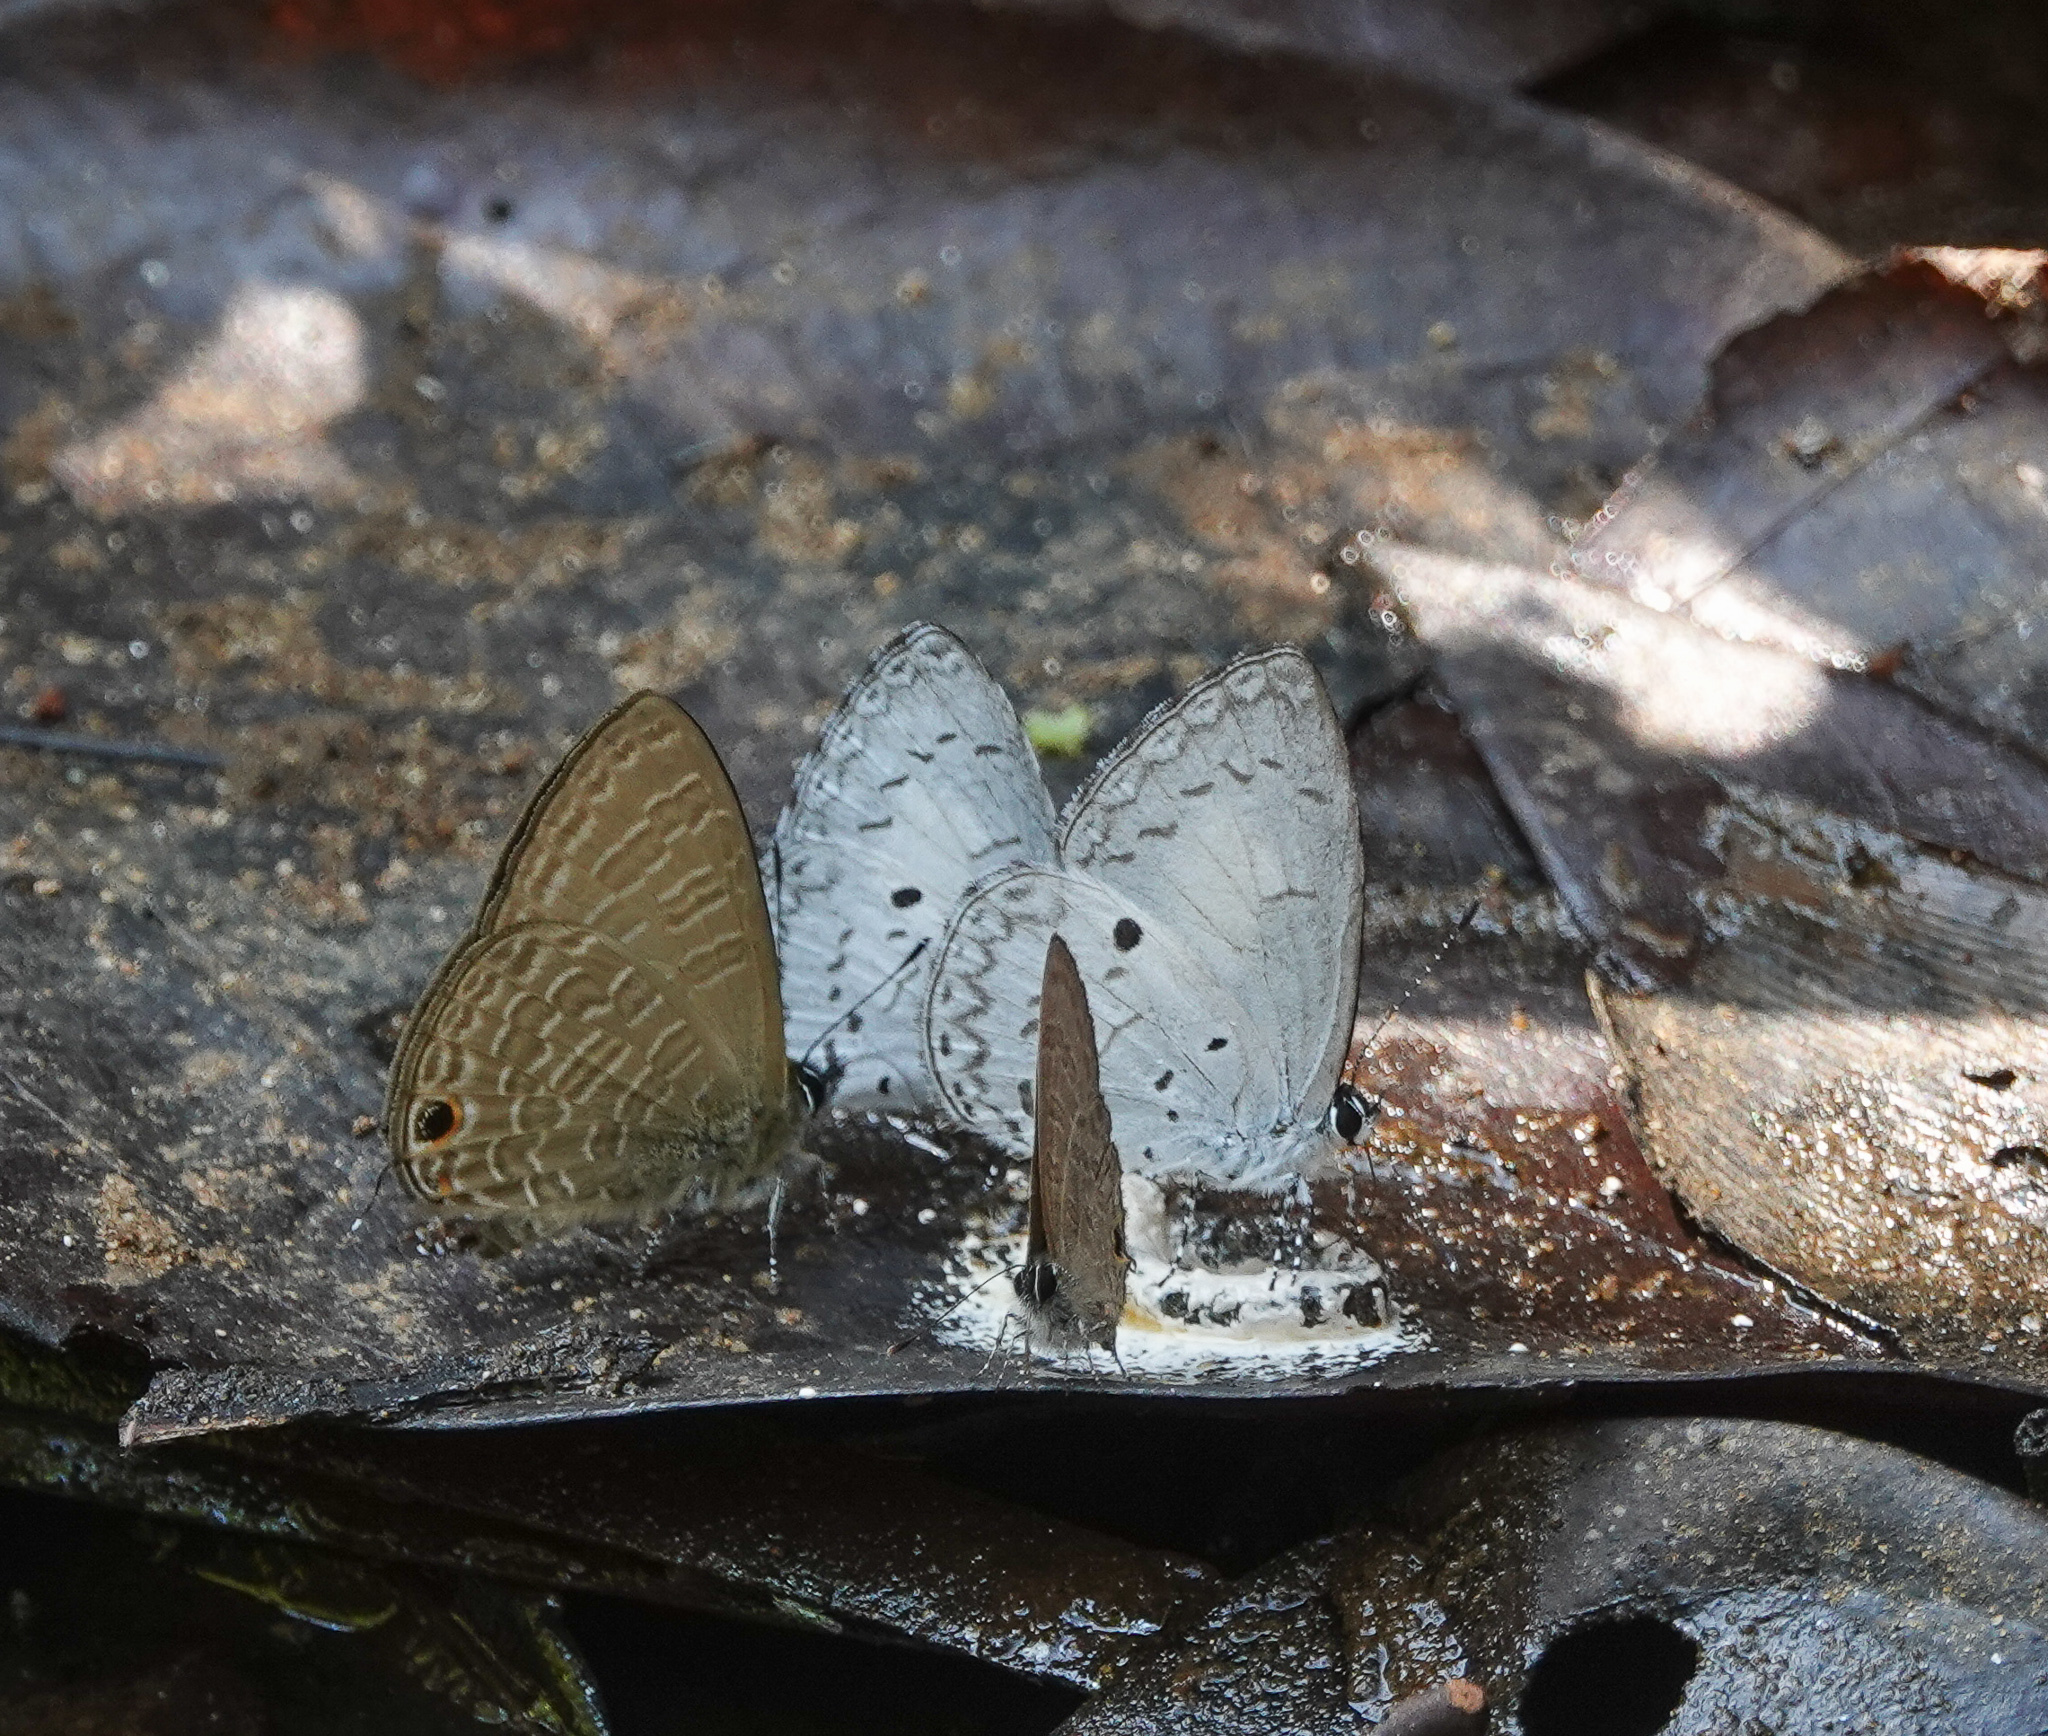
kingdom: Animalia
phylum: Arthropoda
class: Insecta
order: Lepidoptera
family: Lycaenidae
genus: Anthene
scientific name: Anthene emolus
